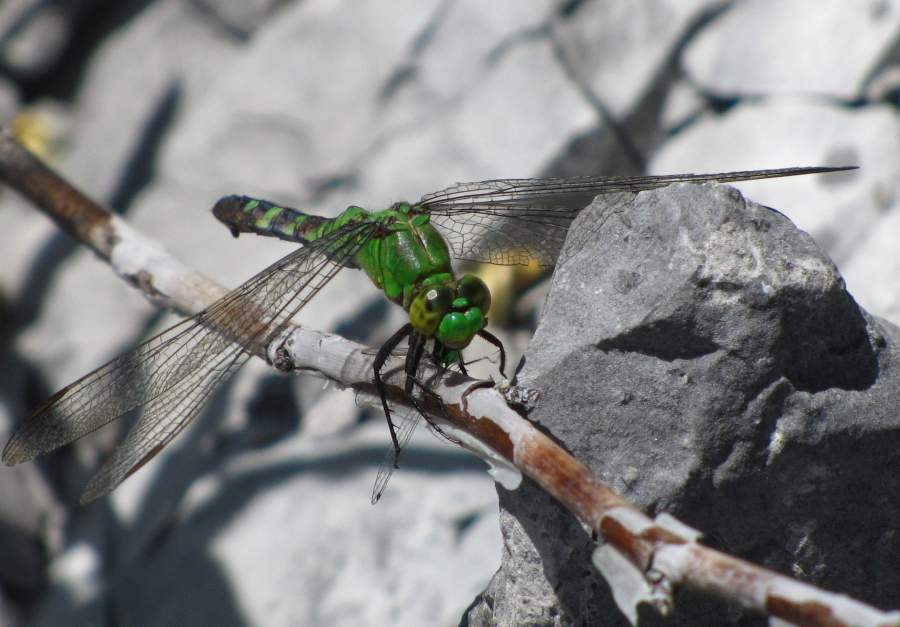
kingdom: Animalia
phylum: Arthropoda
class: Insecta
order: Odonata
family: Libellulidae
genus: Erythemis
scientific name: Erythemis simplicicollis
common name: Eastern pondhawk
